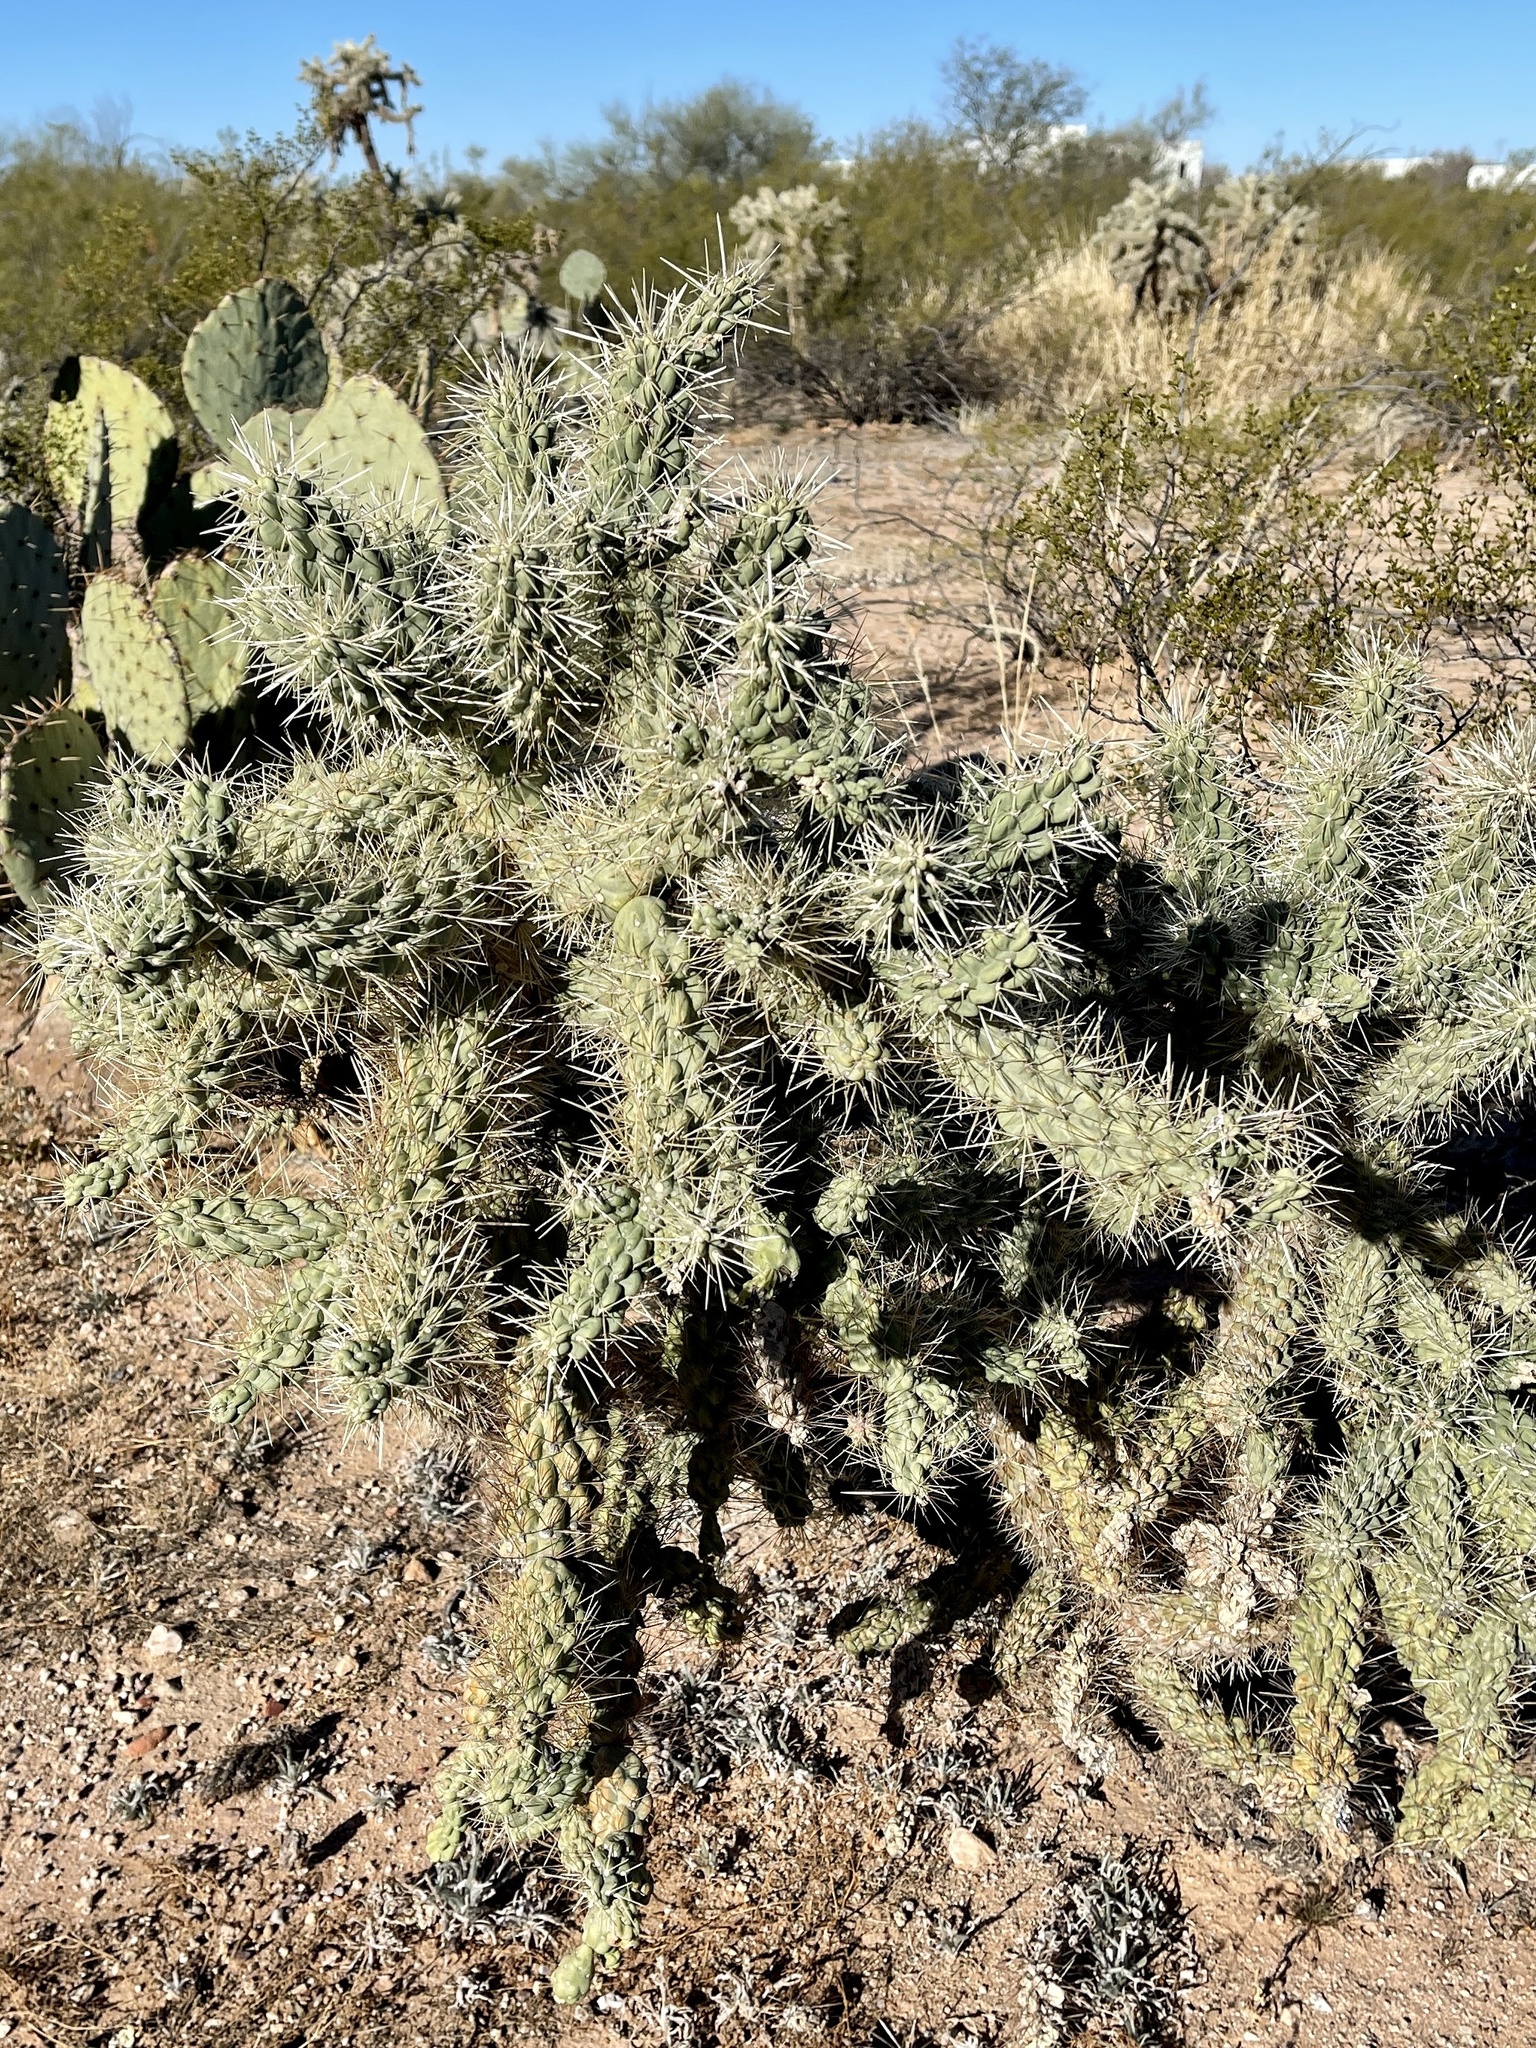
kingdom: Plantae
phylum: Tracheophyta
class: Magnoliopsida
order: Caryophyllales
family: Cactaceae
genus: Cylindropuntia
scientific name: Cylindropuntia fulgida
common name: Jumping cholla
